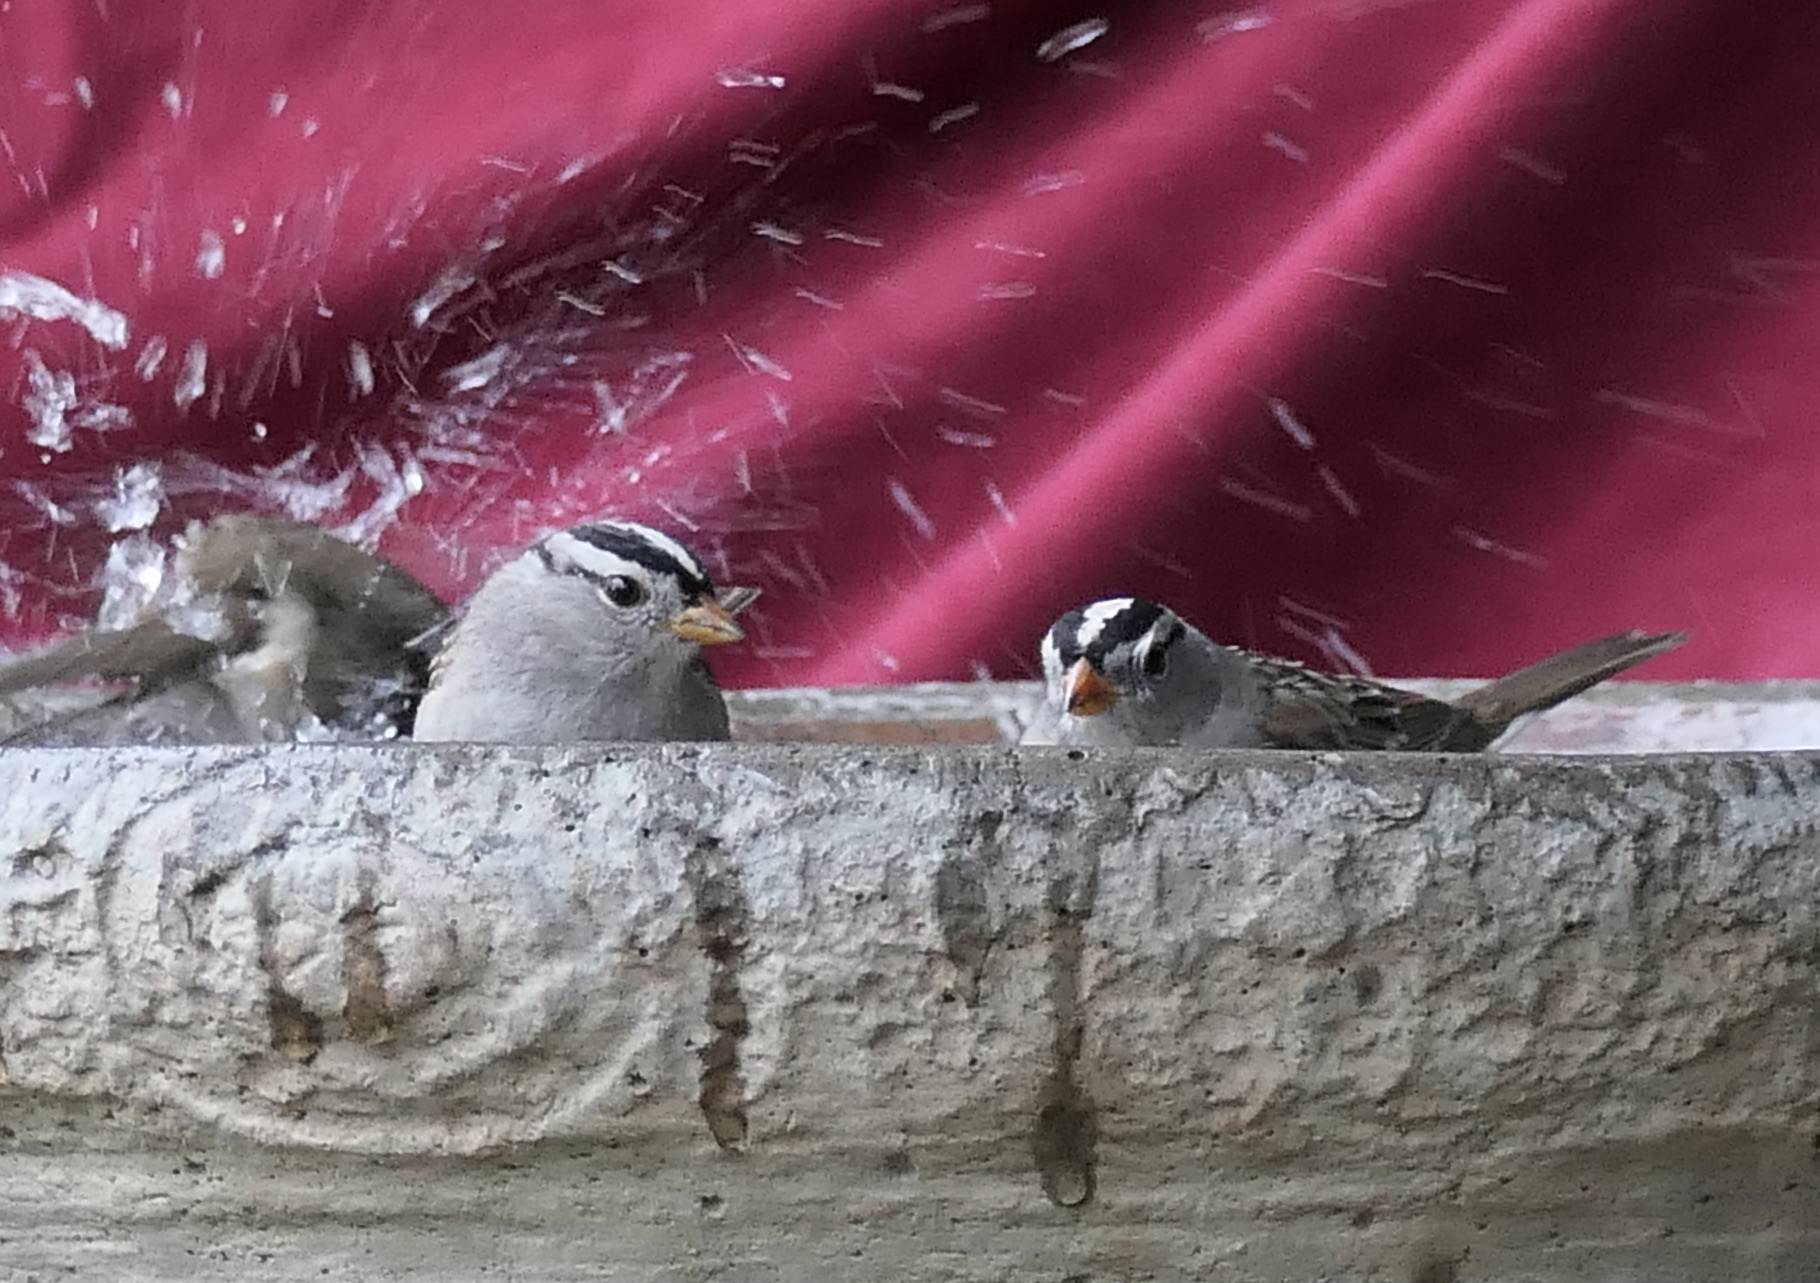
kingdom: Animalia
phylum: Chordata
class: Aves
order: Passeriformes
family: Passerellidae
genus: Zonotrichia
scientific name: Zonotrichia leucophrys
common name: White-crowned sparrow
